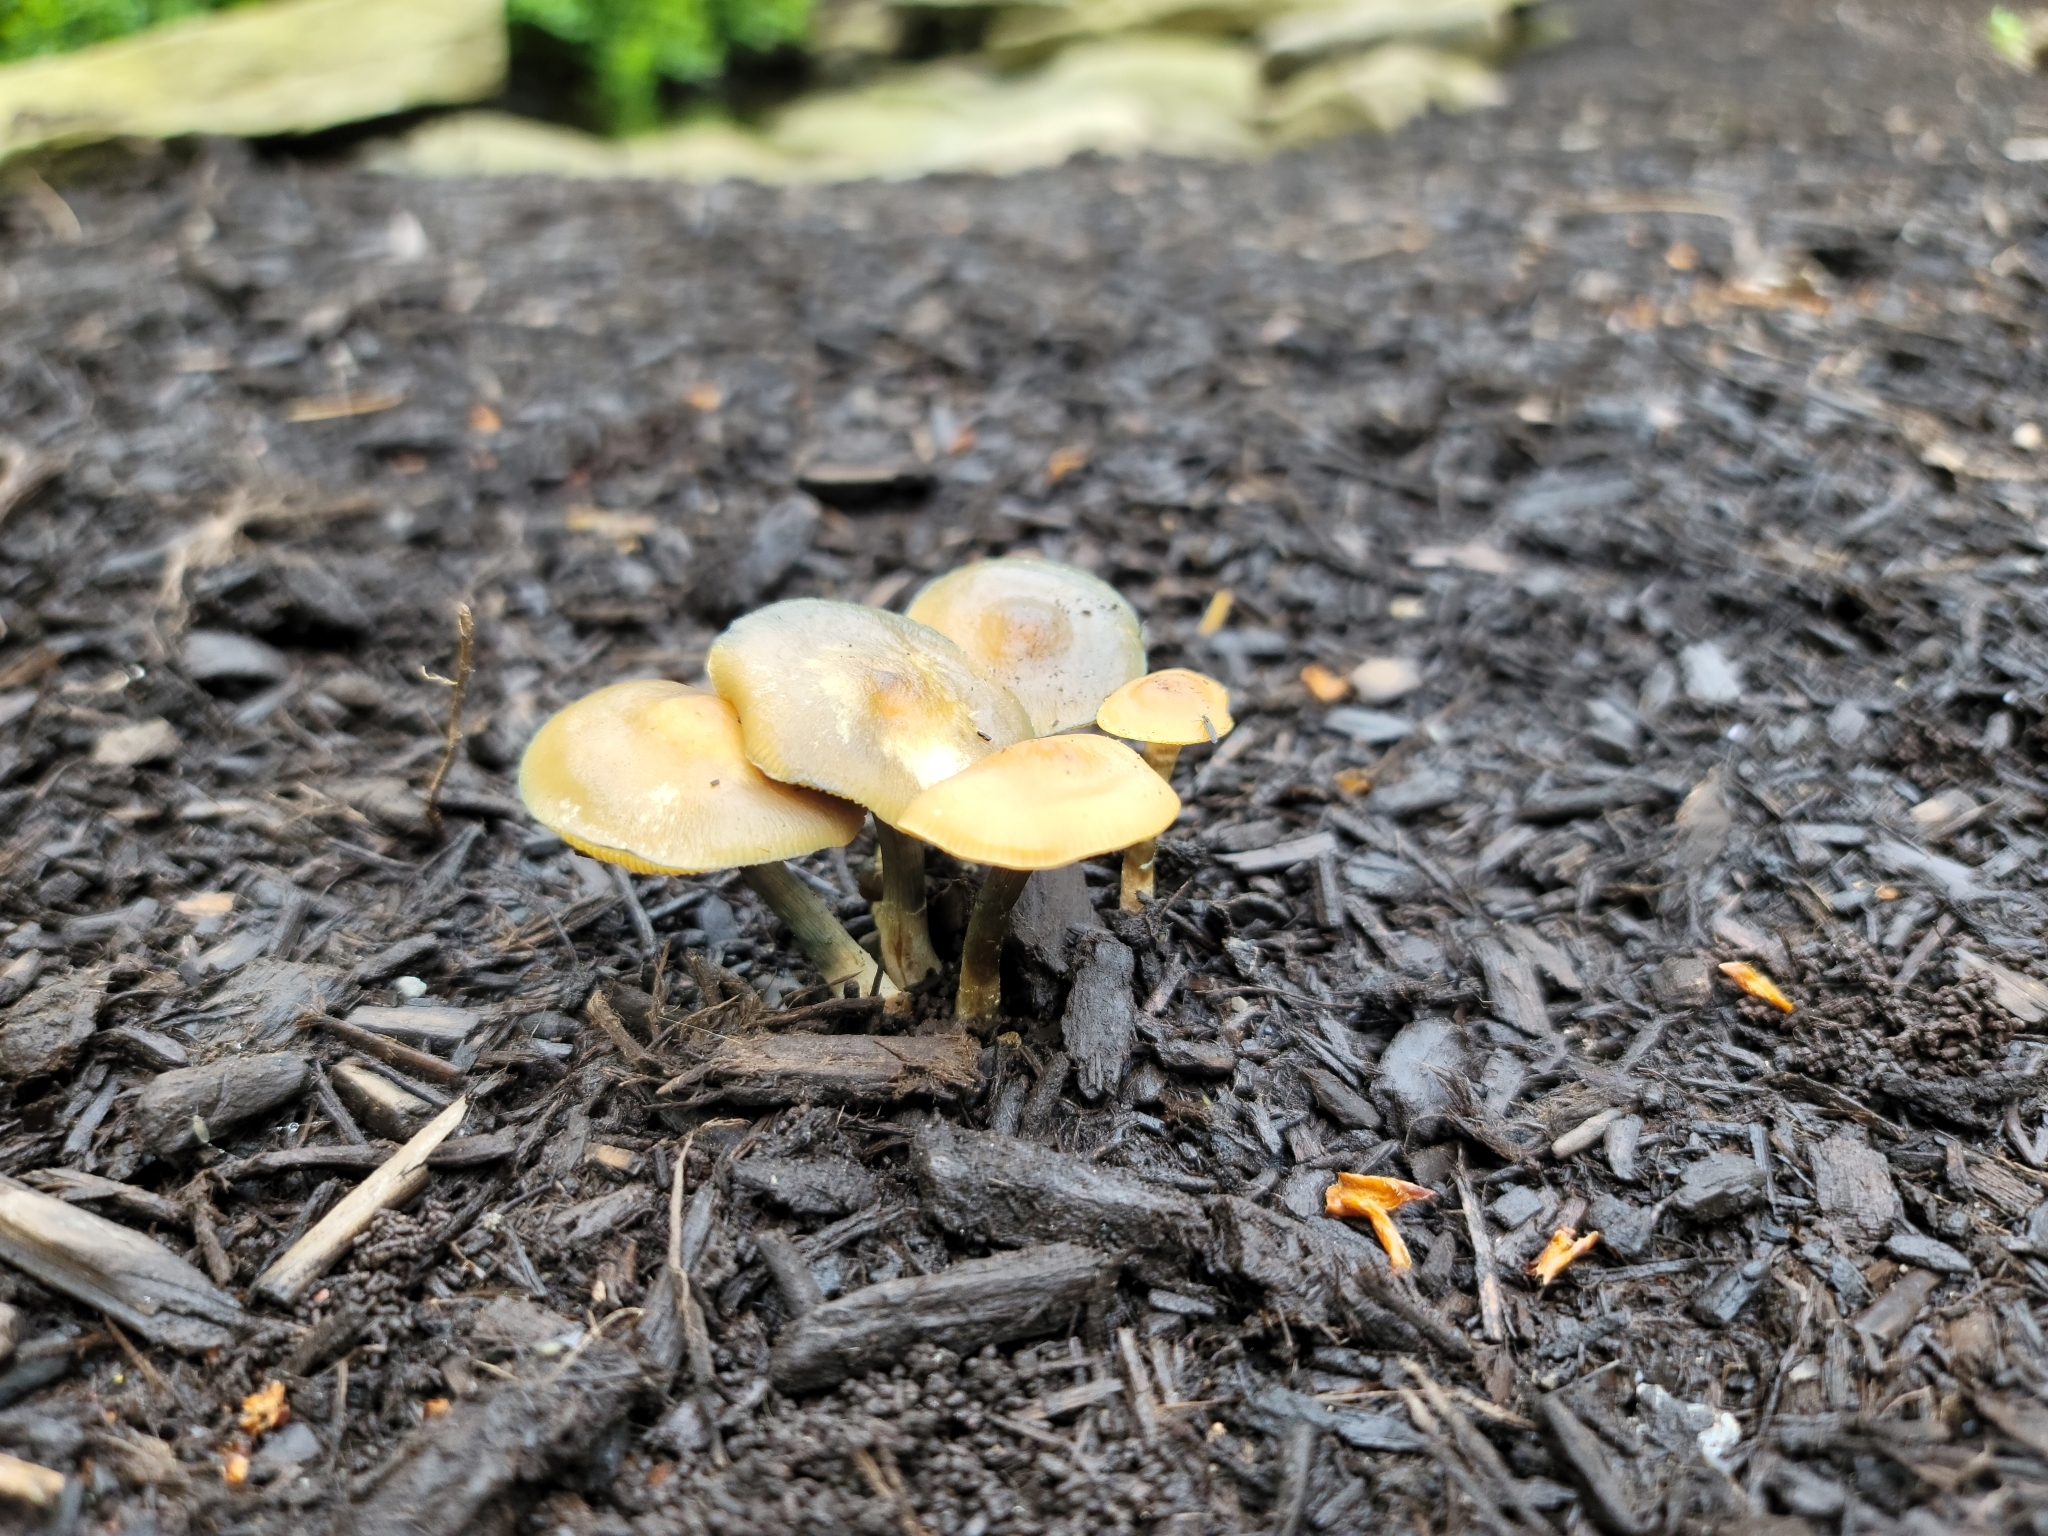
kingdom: Fungi
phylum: Basidiomycota
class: Agaricomycetes
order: Agaricales
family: Hymenogastraceae
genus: Psilocybe
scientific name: Psilocybe ovoideocystidiata
